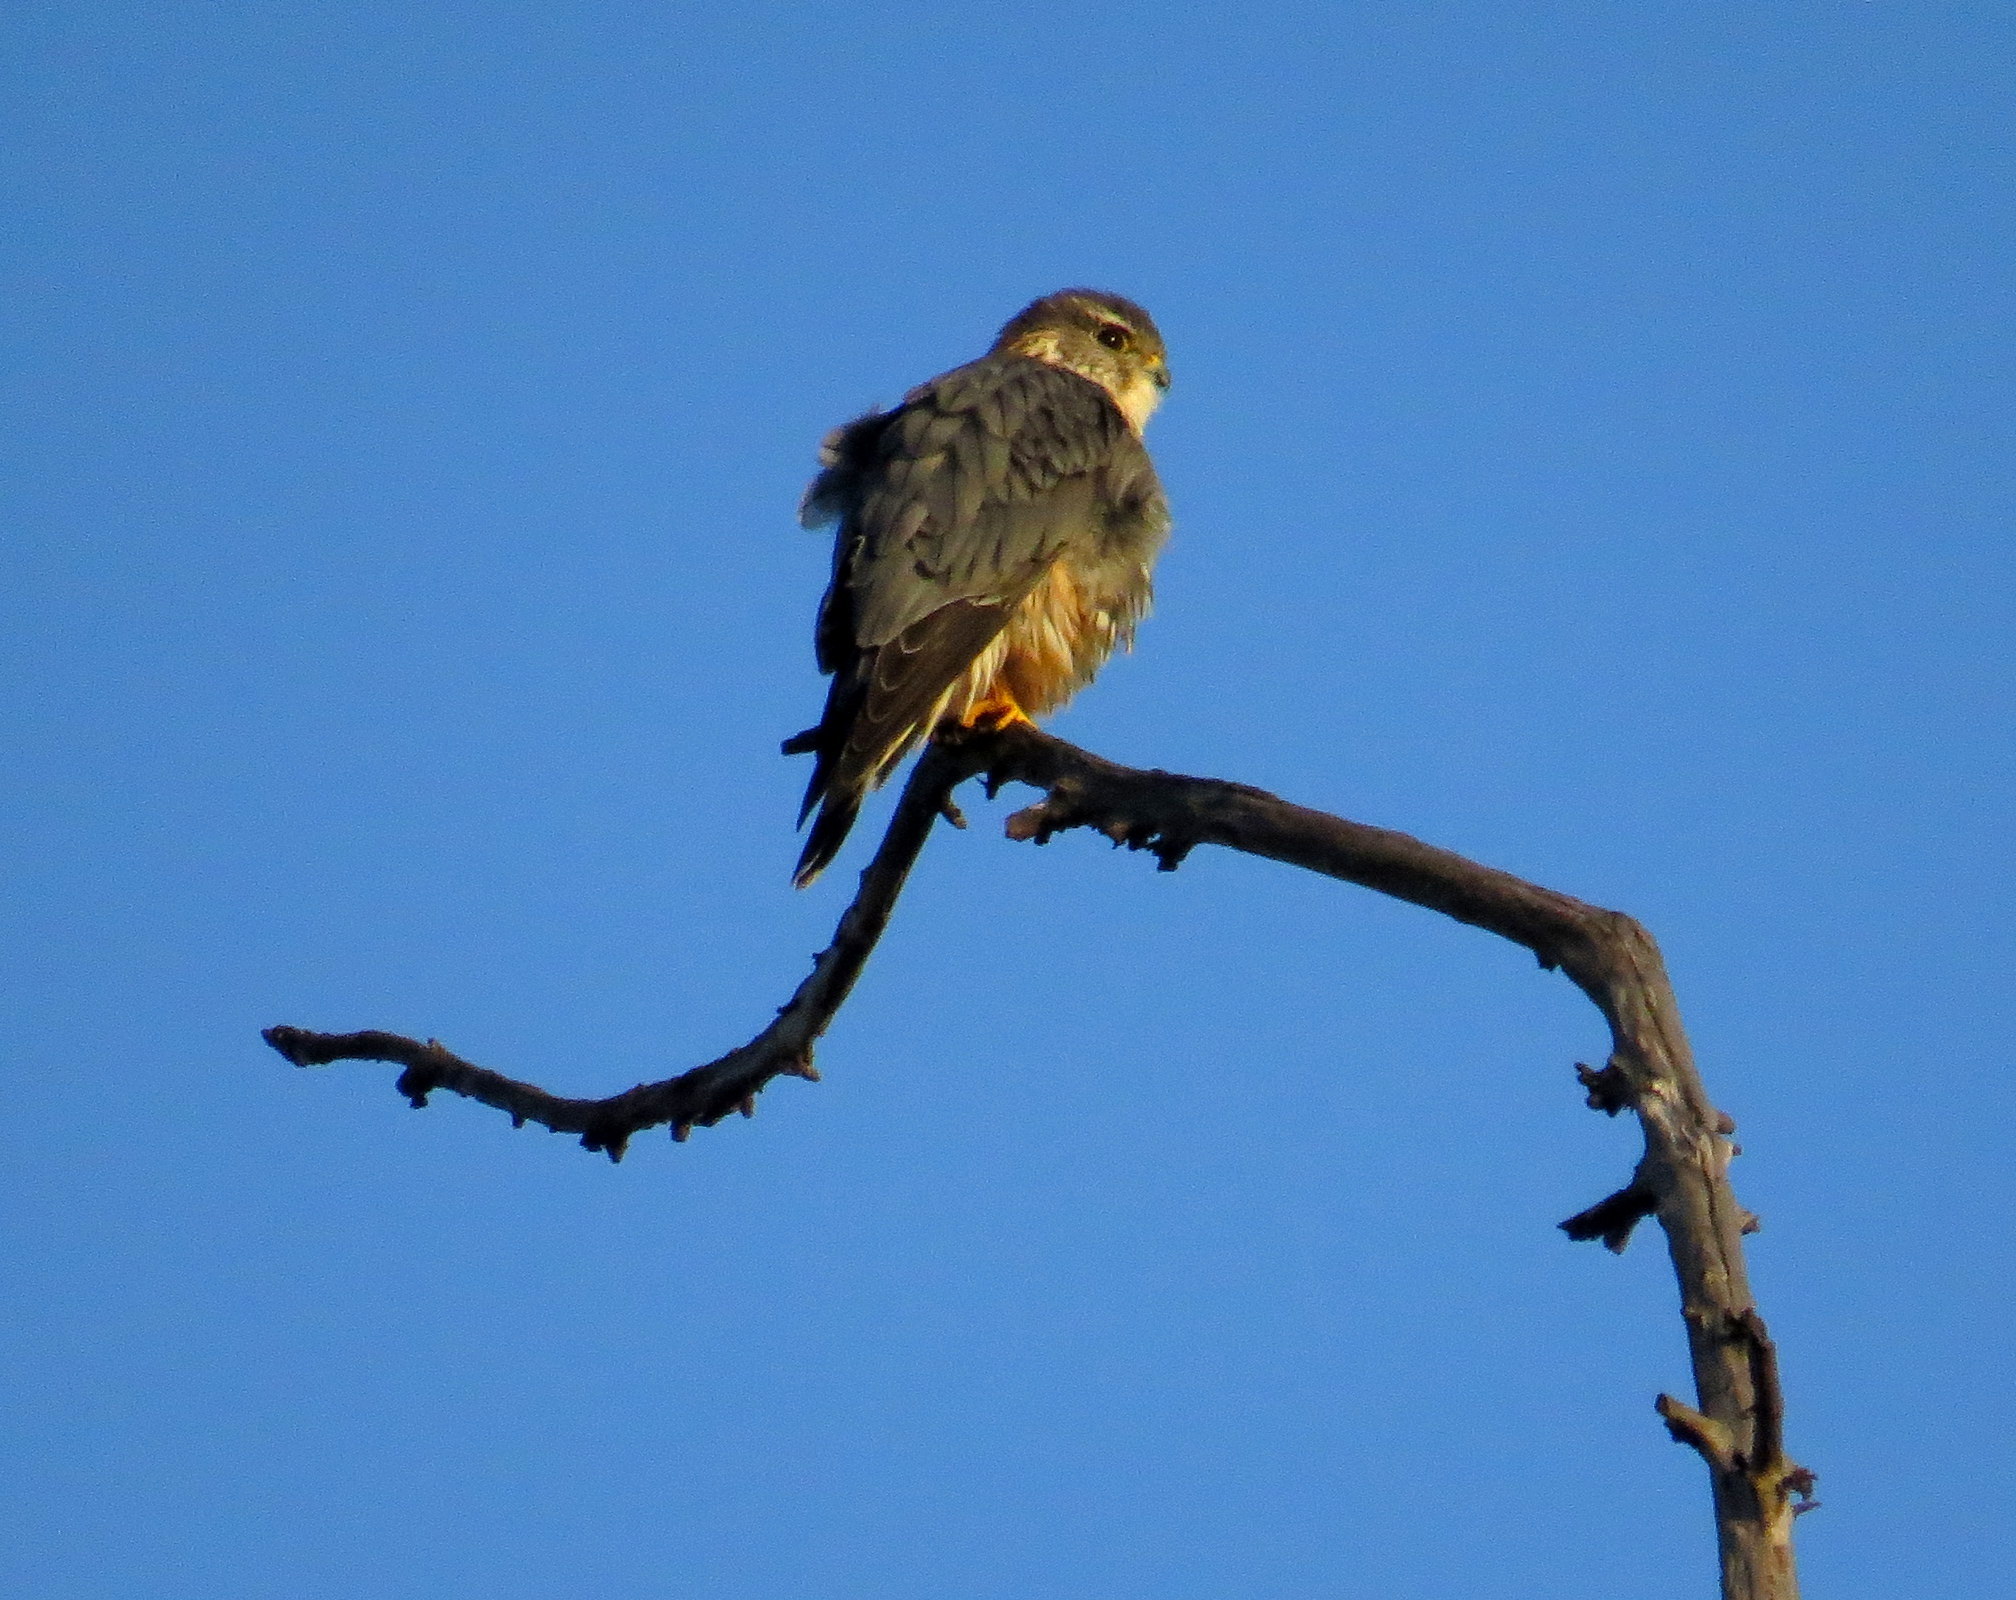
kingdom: Animalia
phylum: Chordata
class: Aves
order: Falconiformes
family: Falconidae
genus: Falco
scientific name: Falco columbarius
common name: Merlin
